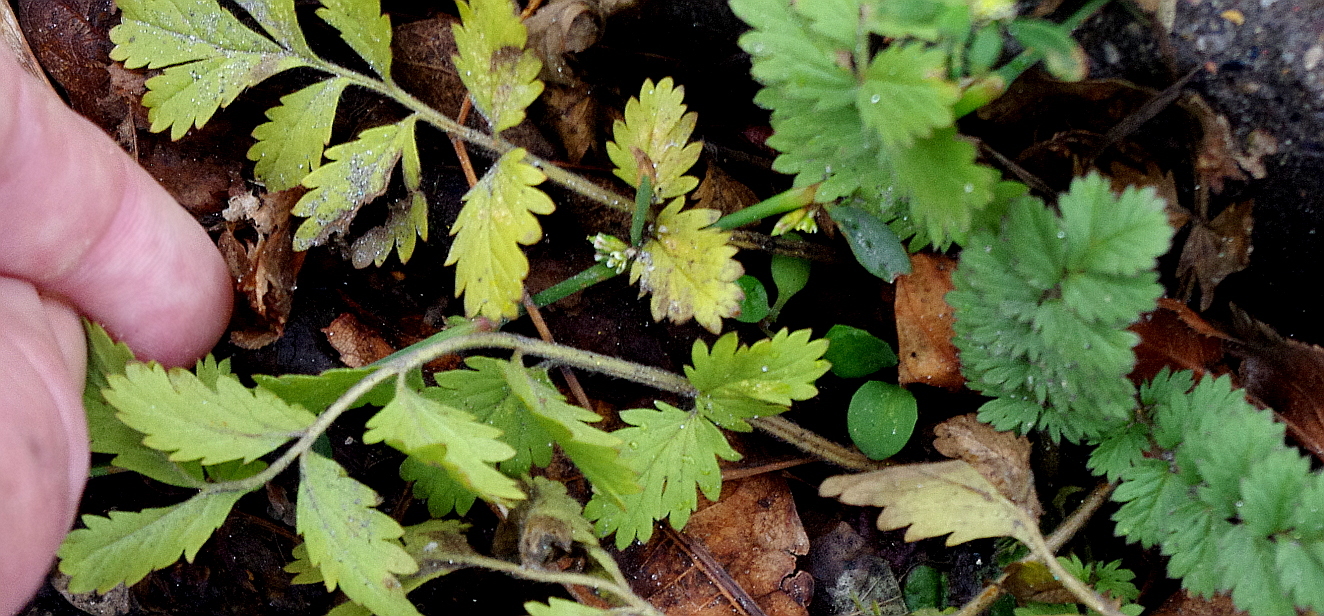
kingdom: Plantae
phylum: Tracheophyta
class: Magnoliopsida
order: Rosales
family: Rosaceae
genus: Potentilla
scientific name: Potentilla supina
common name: Prostrate cinquefoil
